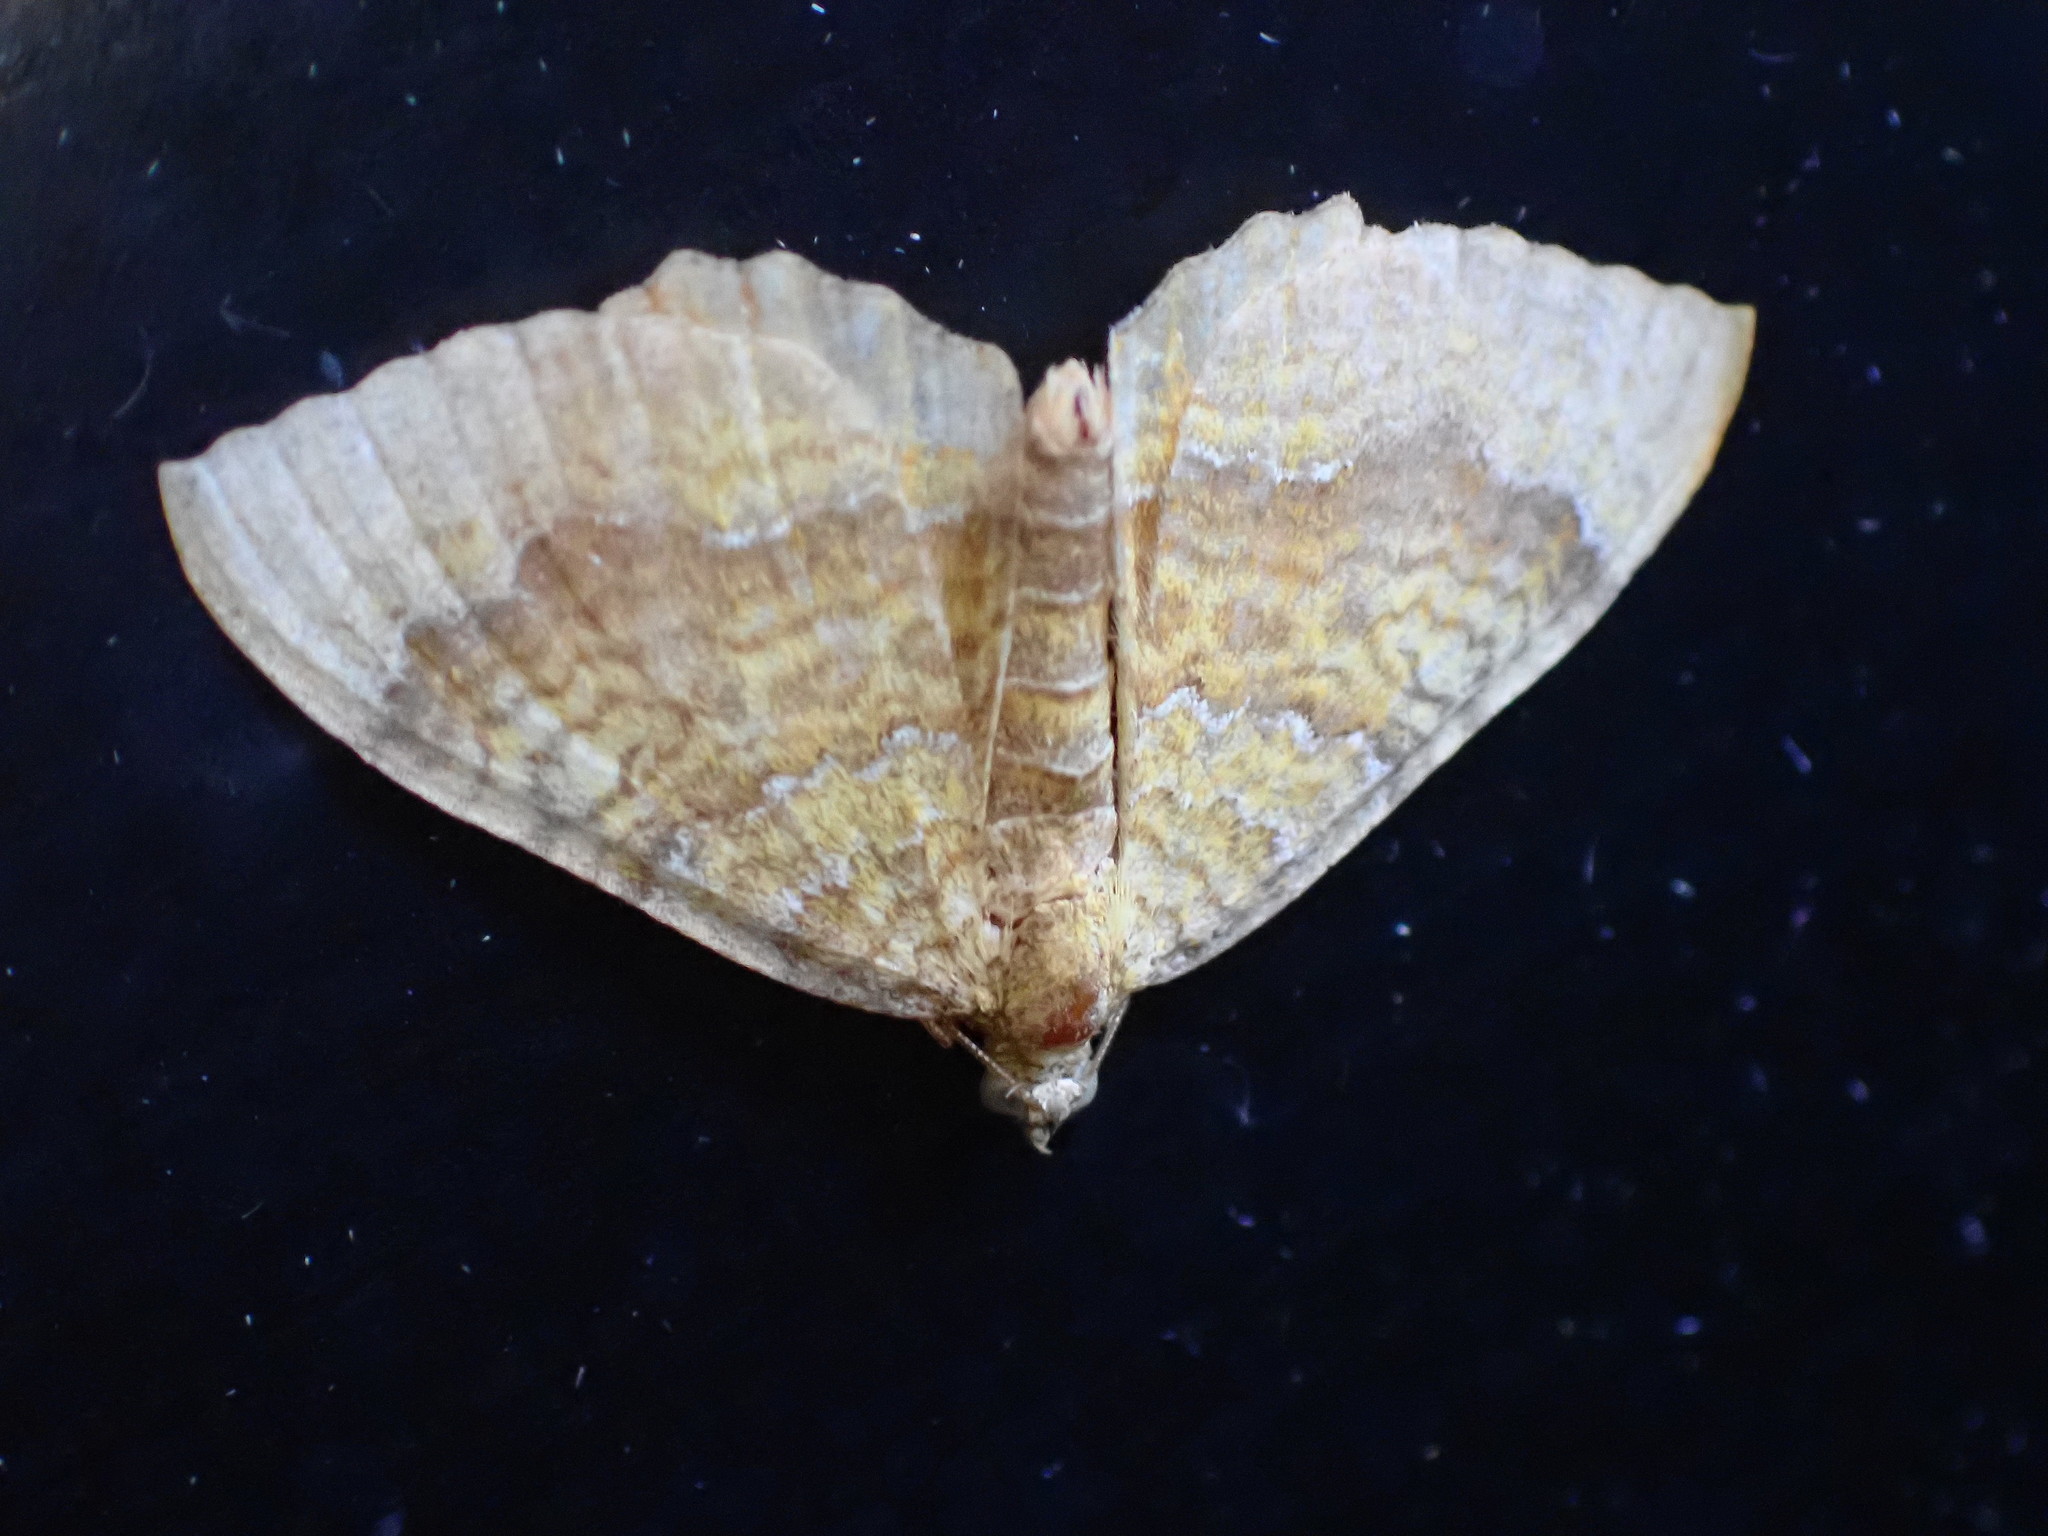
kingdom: Animalia
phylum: Arthropoda
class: Insecta
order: Lepidoptera
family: Geometridae
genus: Camptogramma
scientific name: Camptogramma bilineata
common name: Yellow shell
